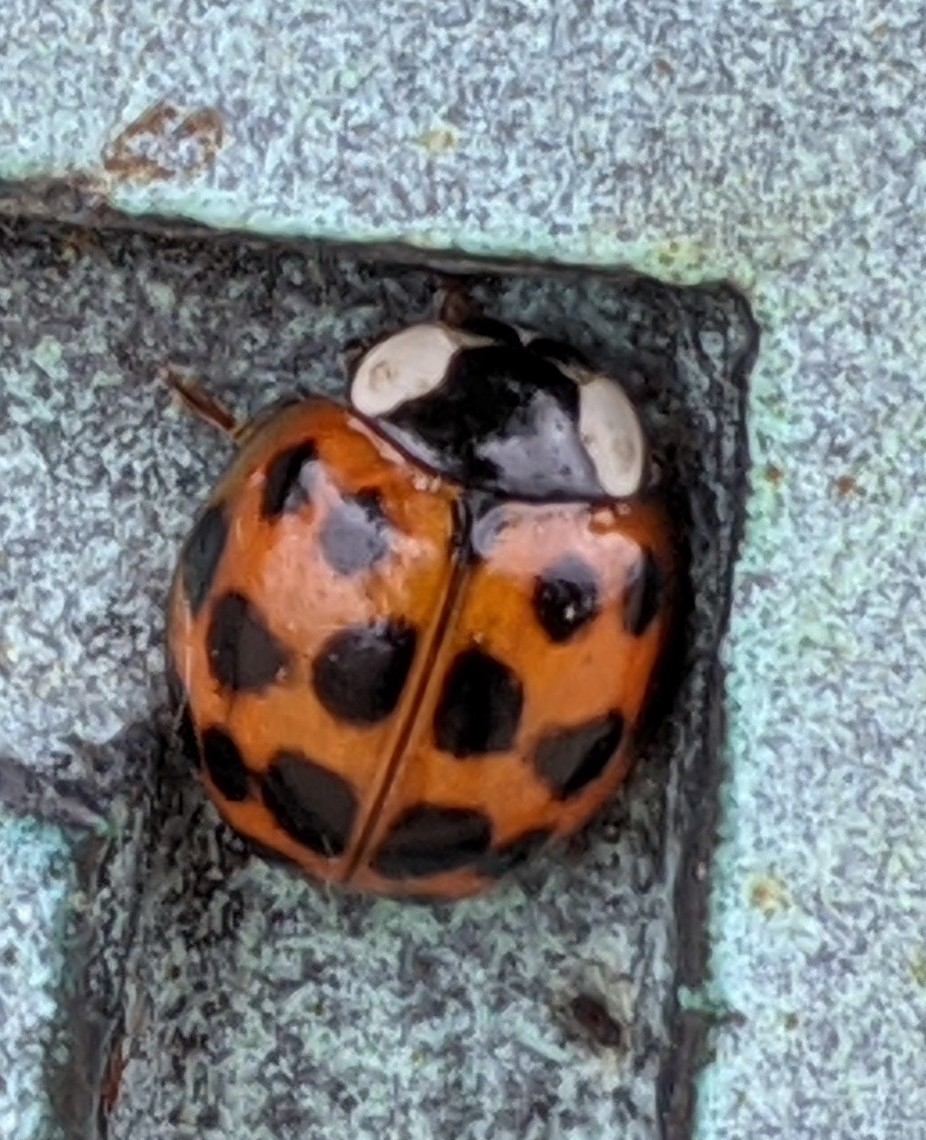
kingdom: Animalia
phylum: Arthropoda
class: Insecta
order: Coleoptera
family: Coccinellidae
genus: Harmonia
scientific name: Harmonia axyridis
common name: Harlequin ladybird
